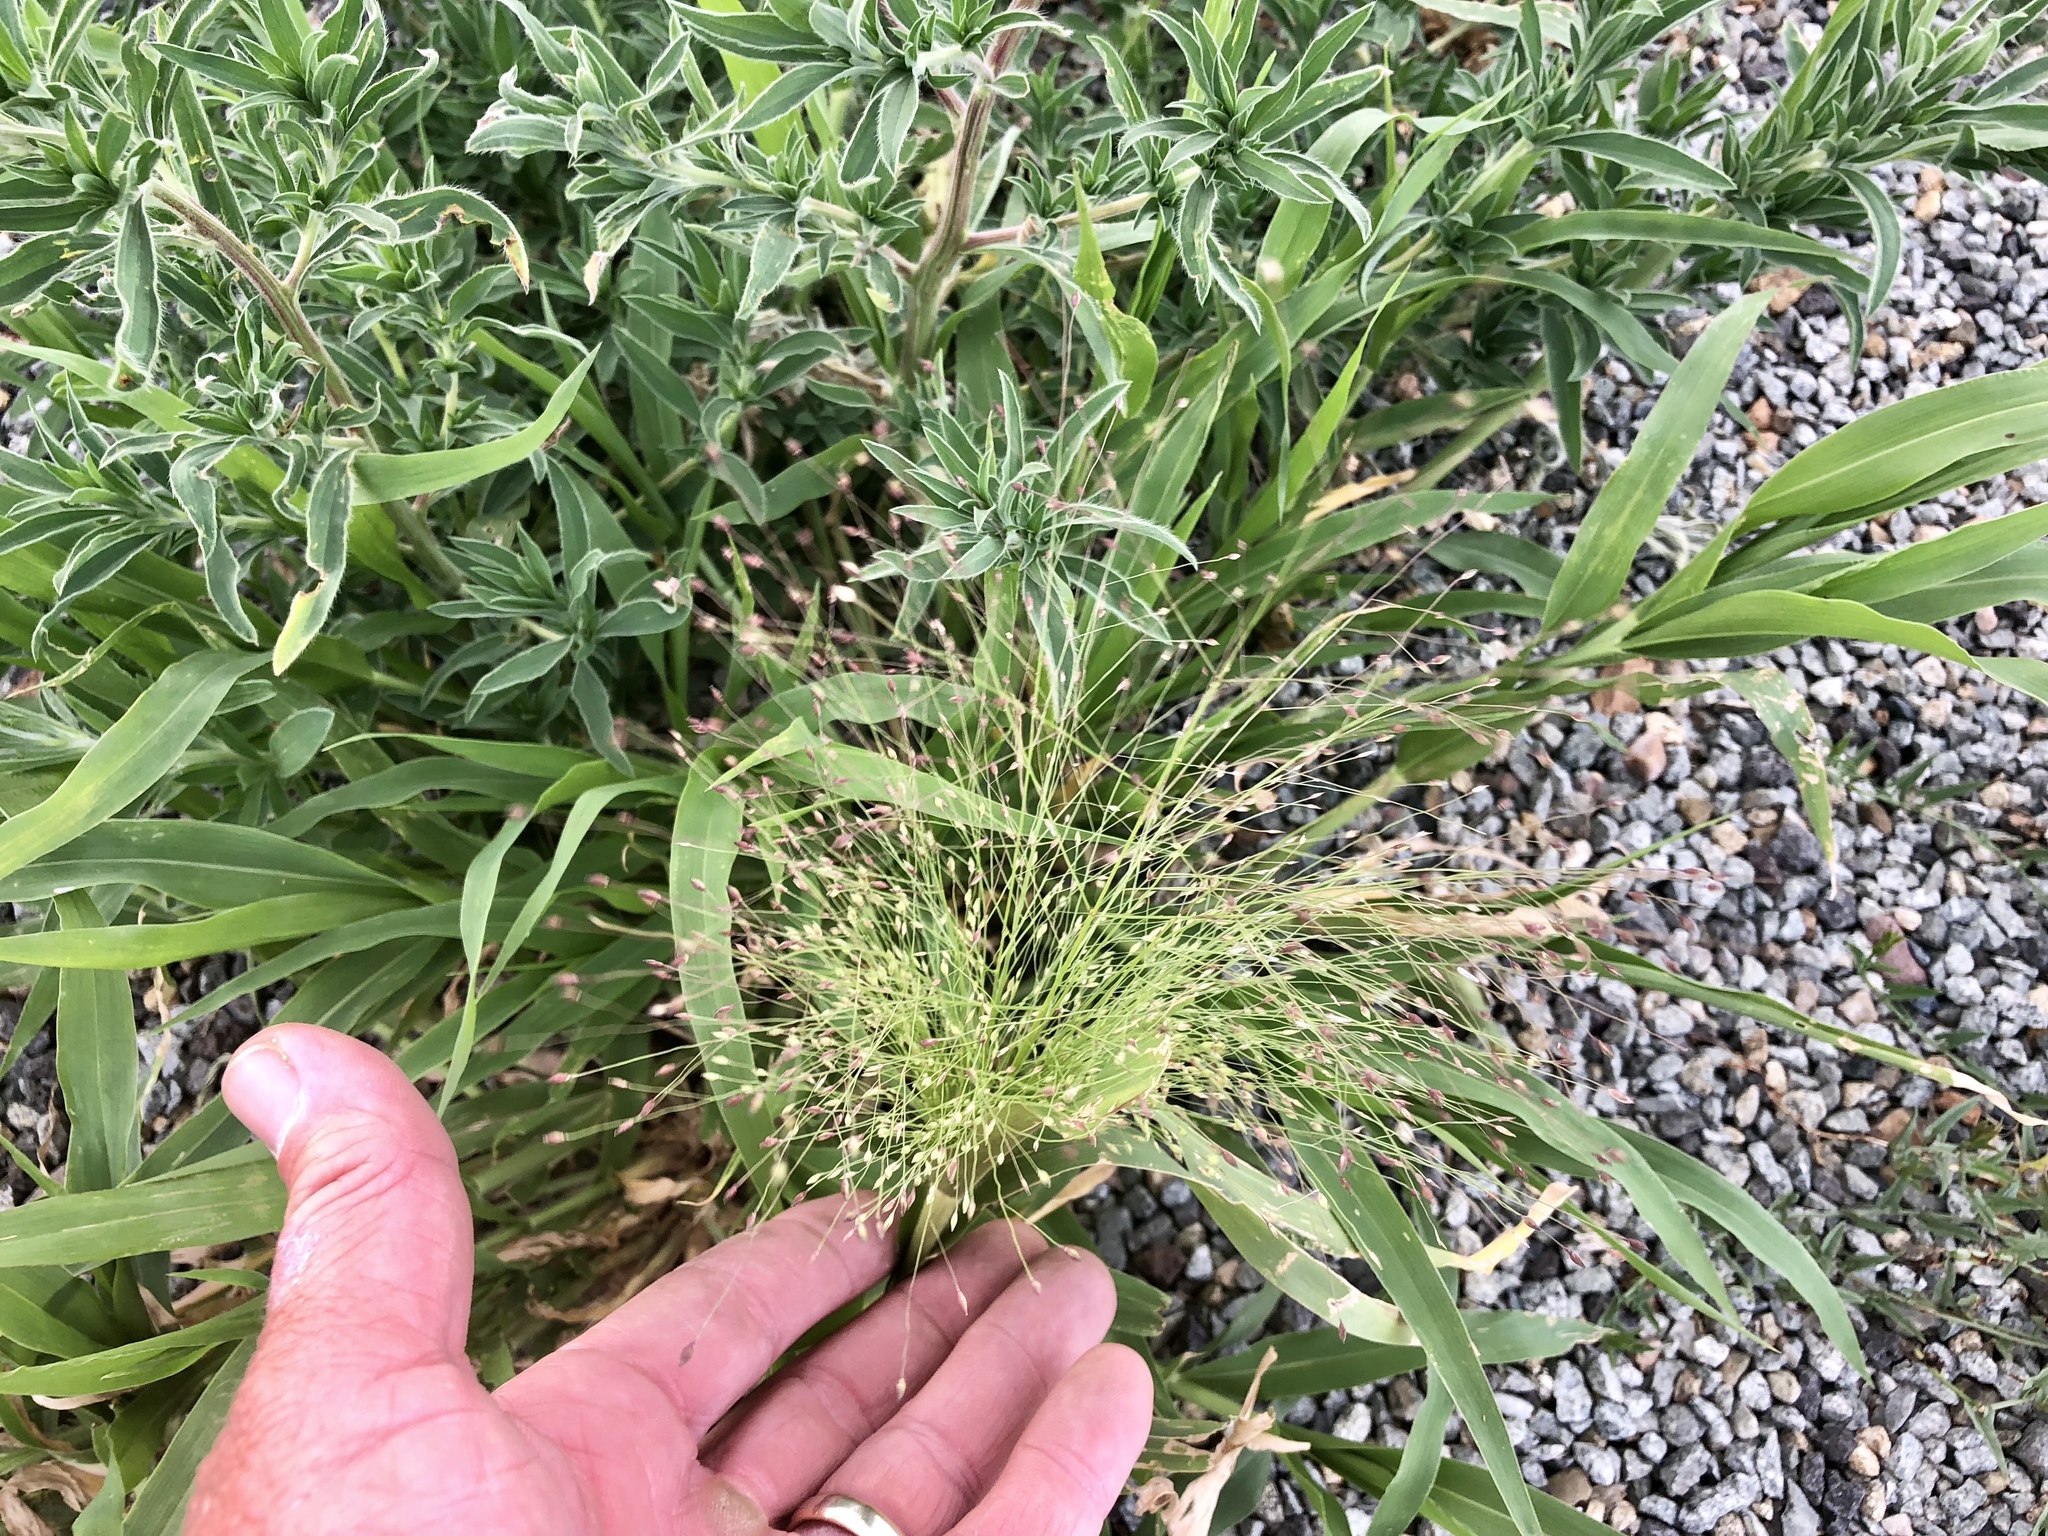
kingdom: Plantae
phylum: Tracheophyta
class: Liliopsida
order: Poales
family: Poaceae
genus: Panicum
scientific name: Panicum capillare
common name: Witch-grass
